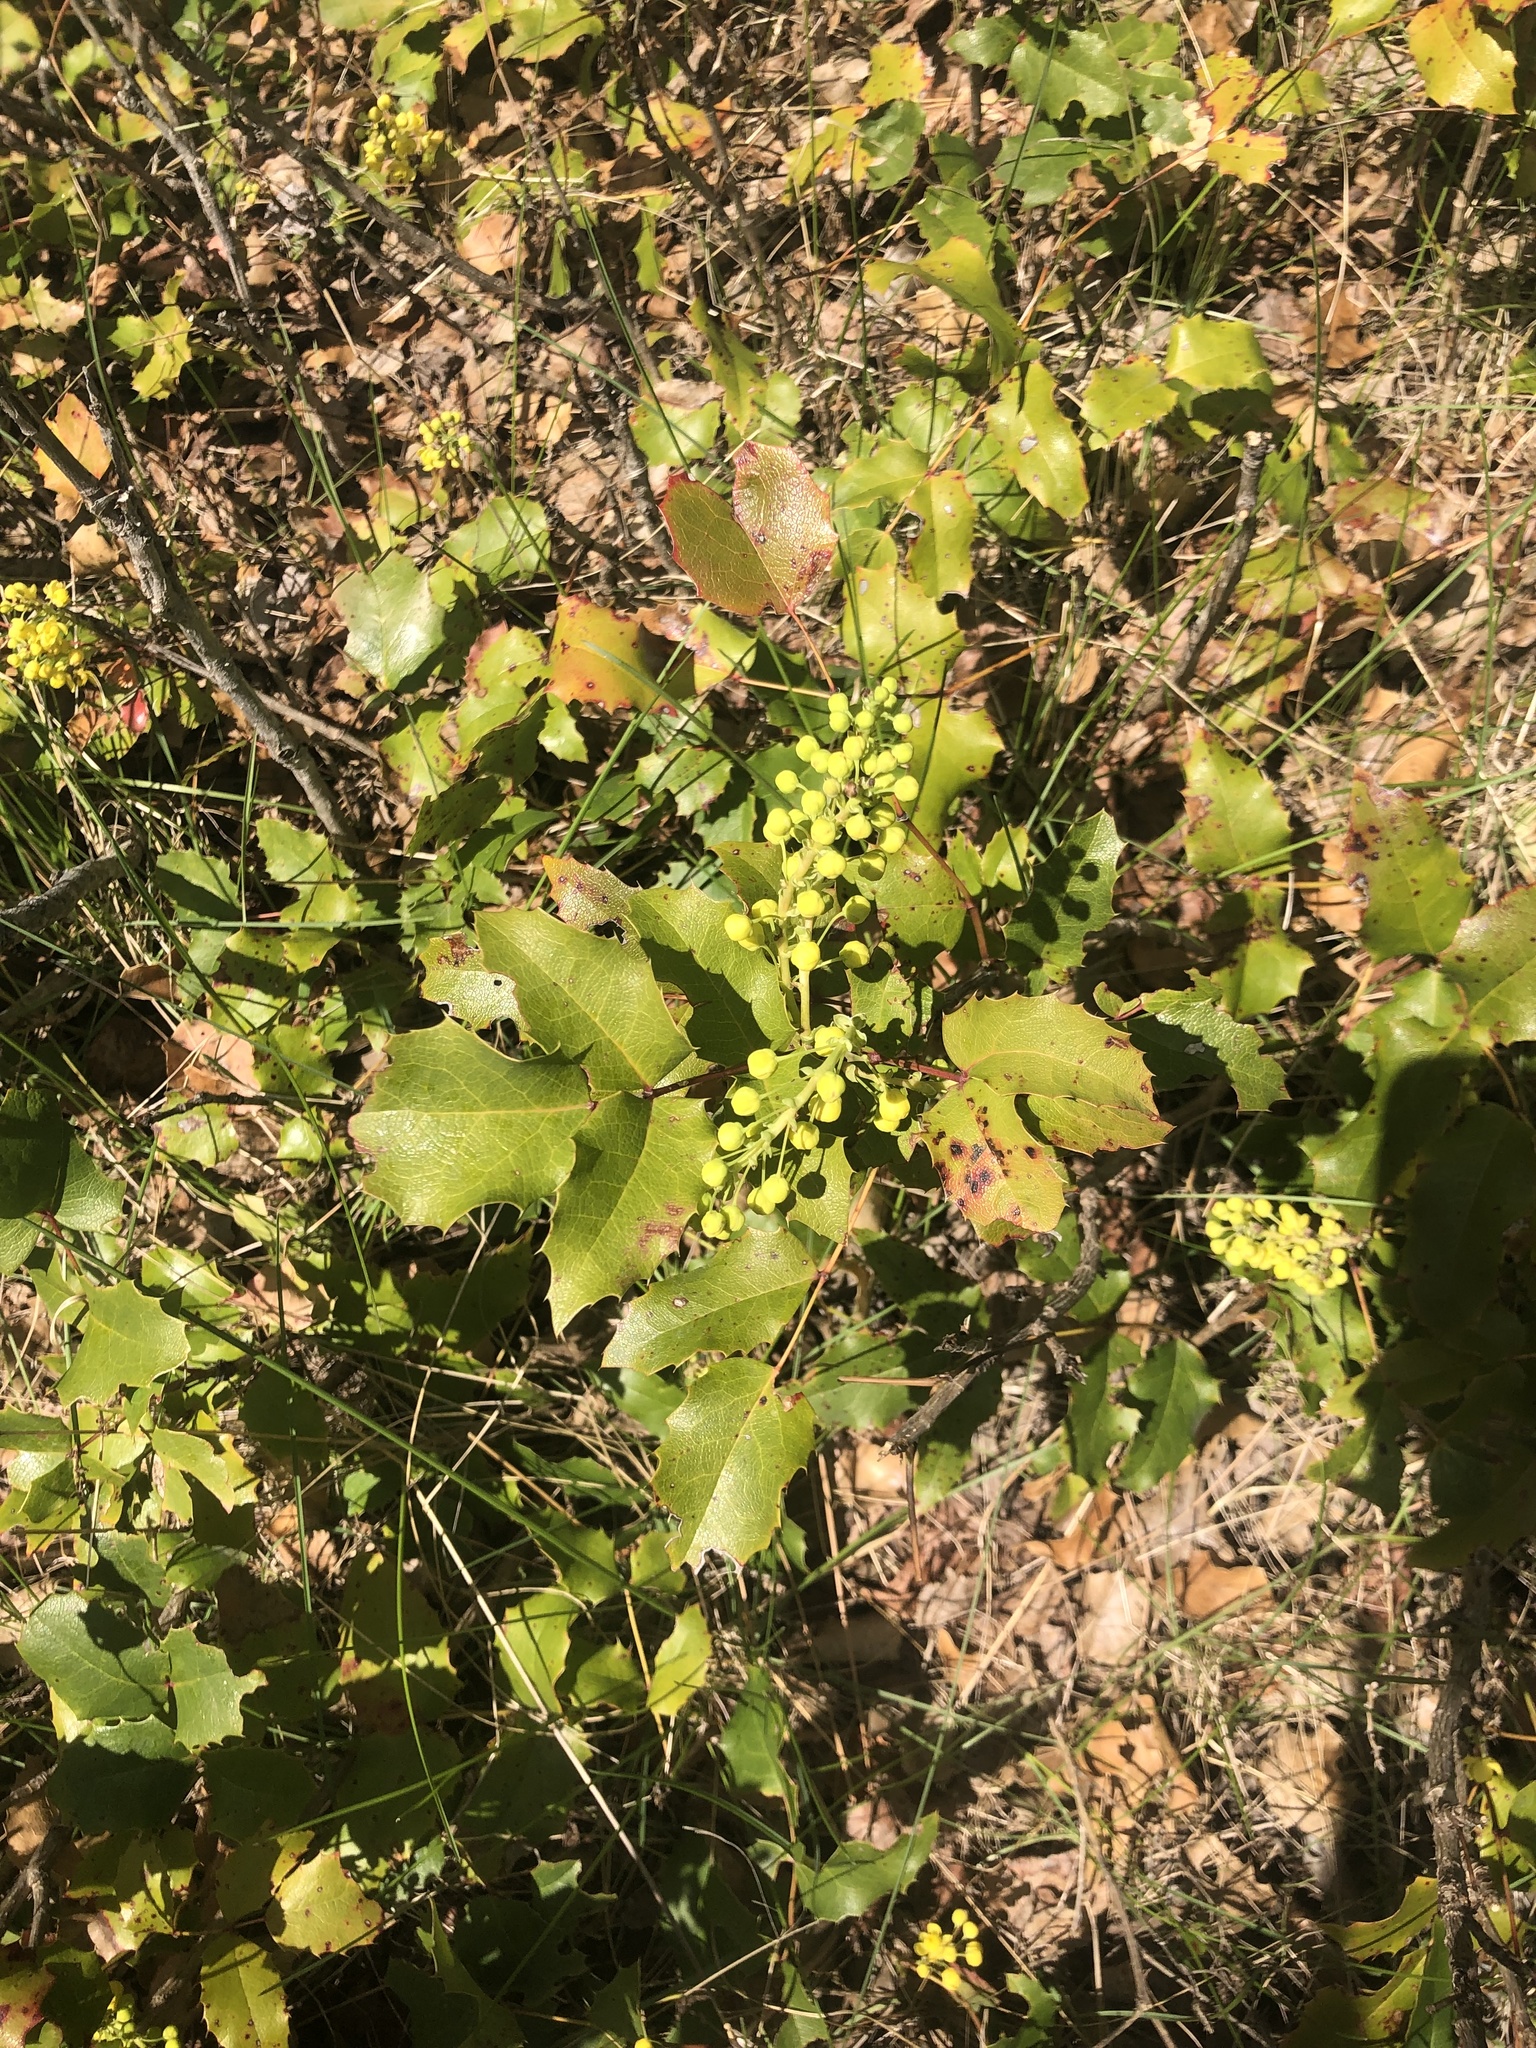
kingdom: Plantae
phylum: Tracheophyta
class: Magnoliopsida
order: Ranunculales
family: Berberidaceae
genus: Mahonia
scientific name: Mahonia aquifolium
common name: Oregon-grape
